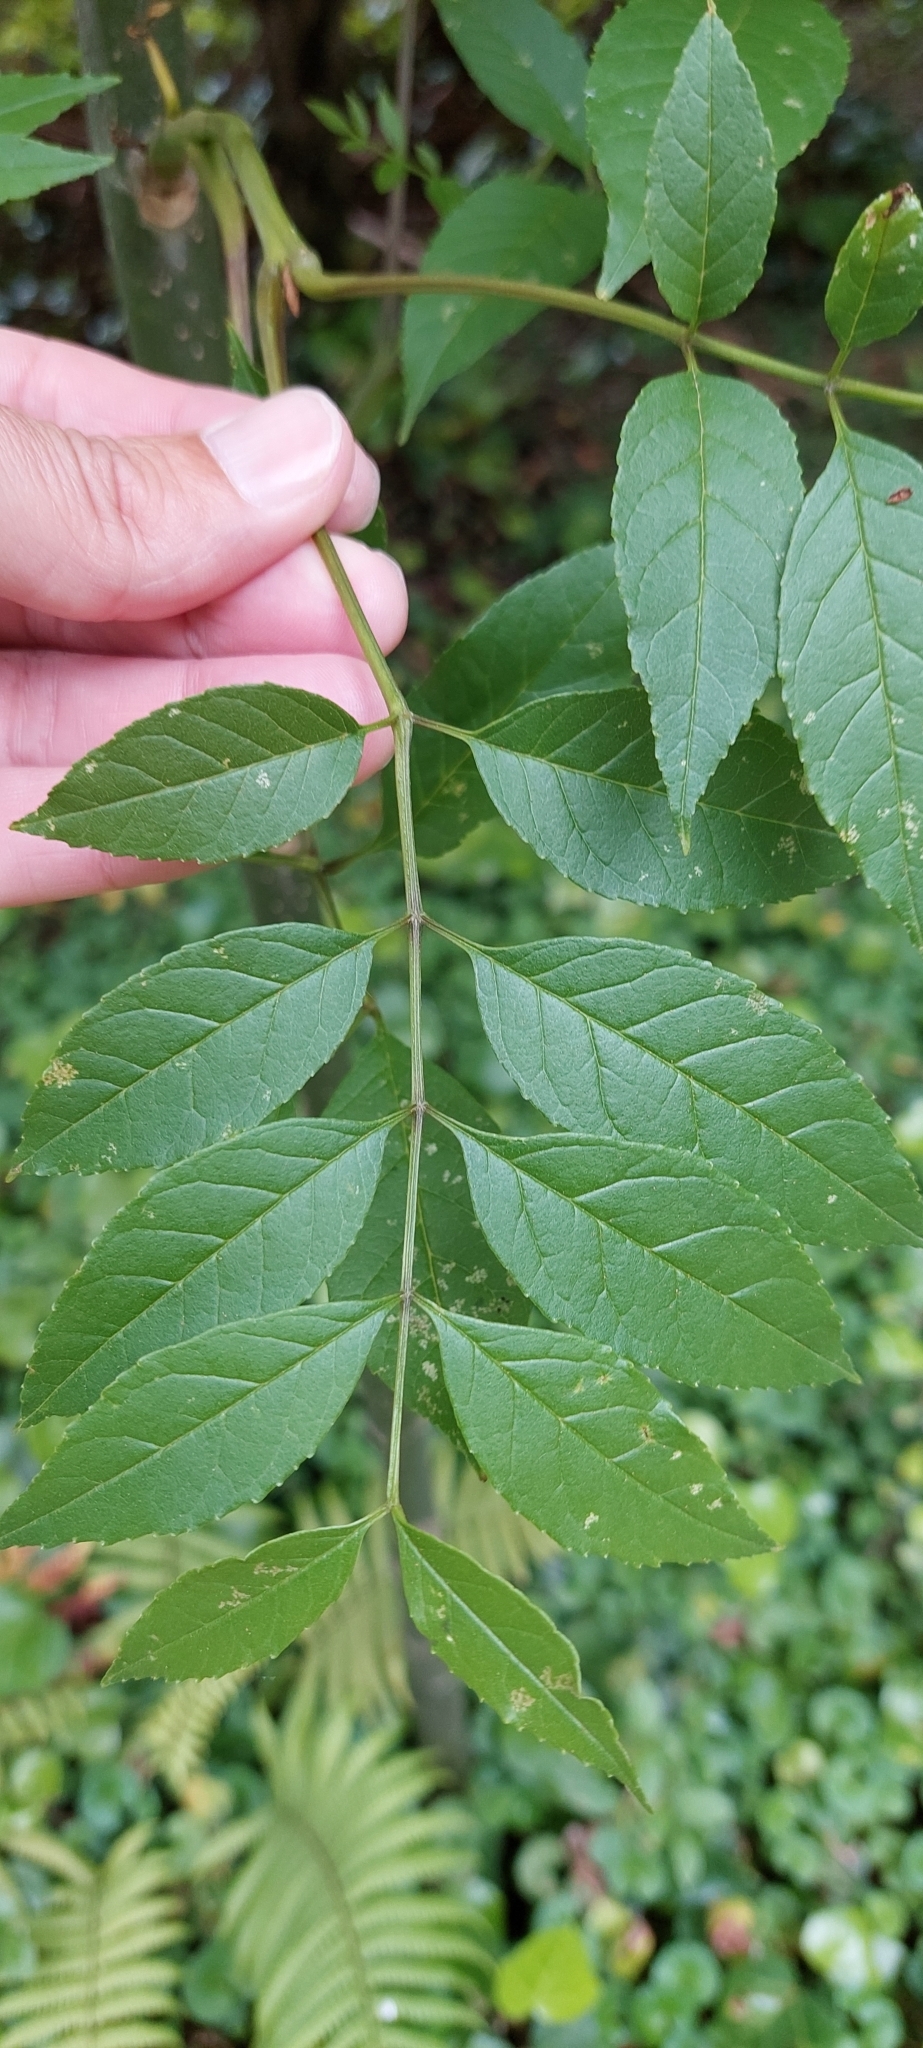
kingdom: Plantae
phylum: Tracheophyta
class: Magnoliopsida
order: Lamiales
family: Oleaceae
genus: Fraxinus
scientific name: Fraxinus uhdei
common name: Shamel ash
